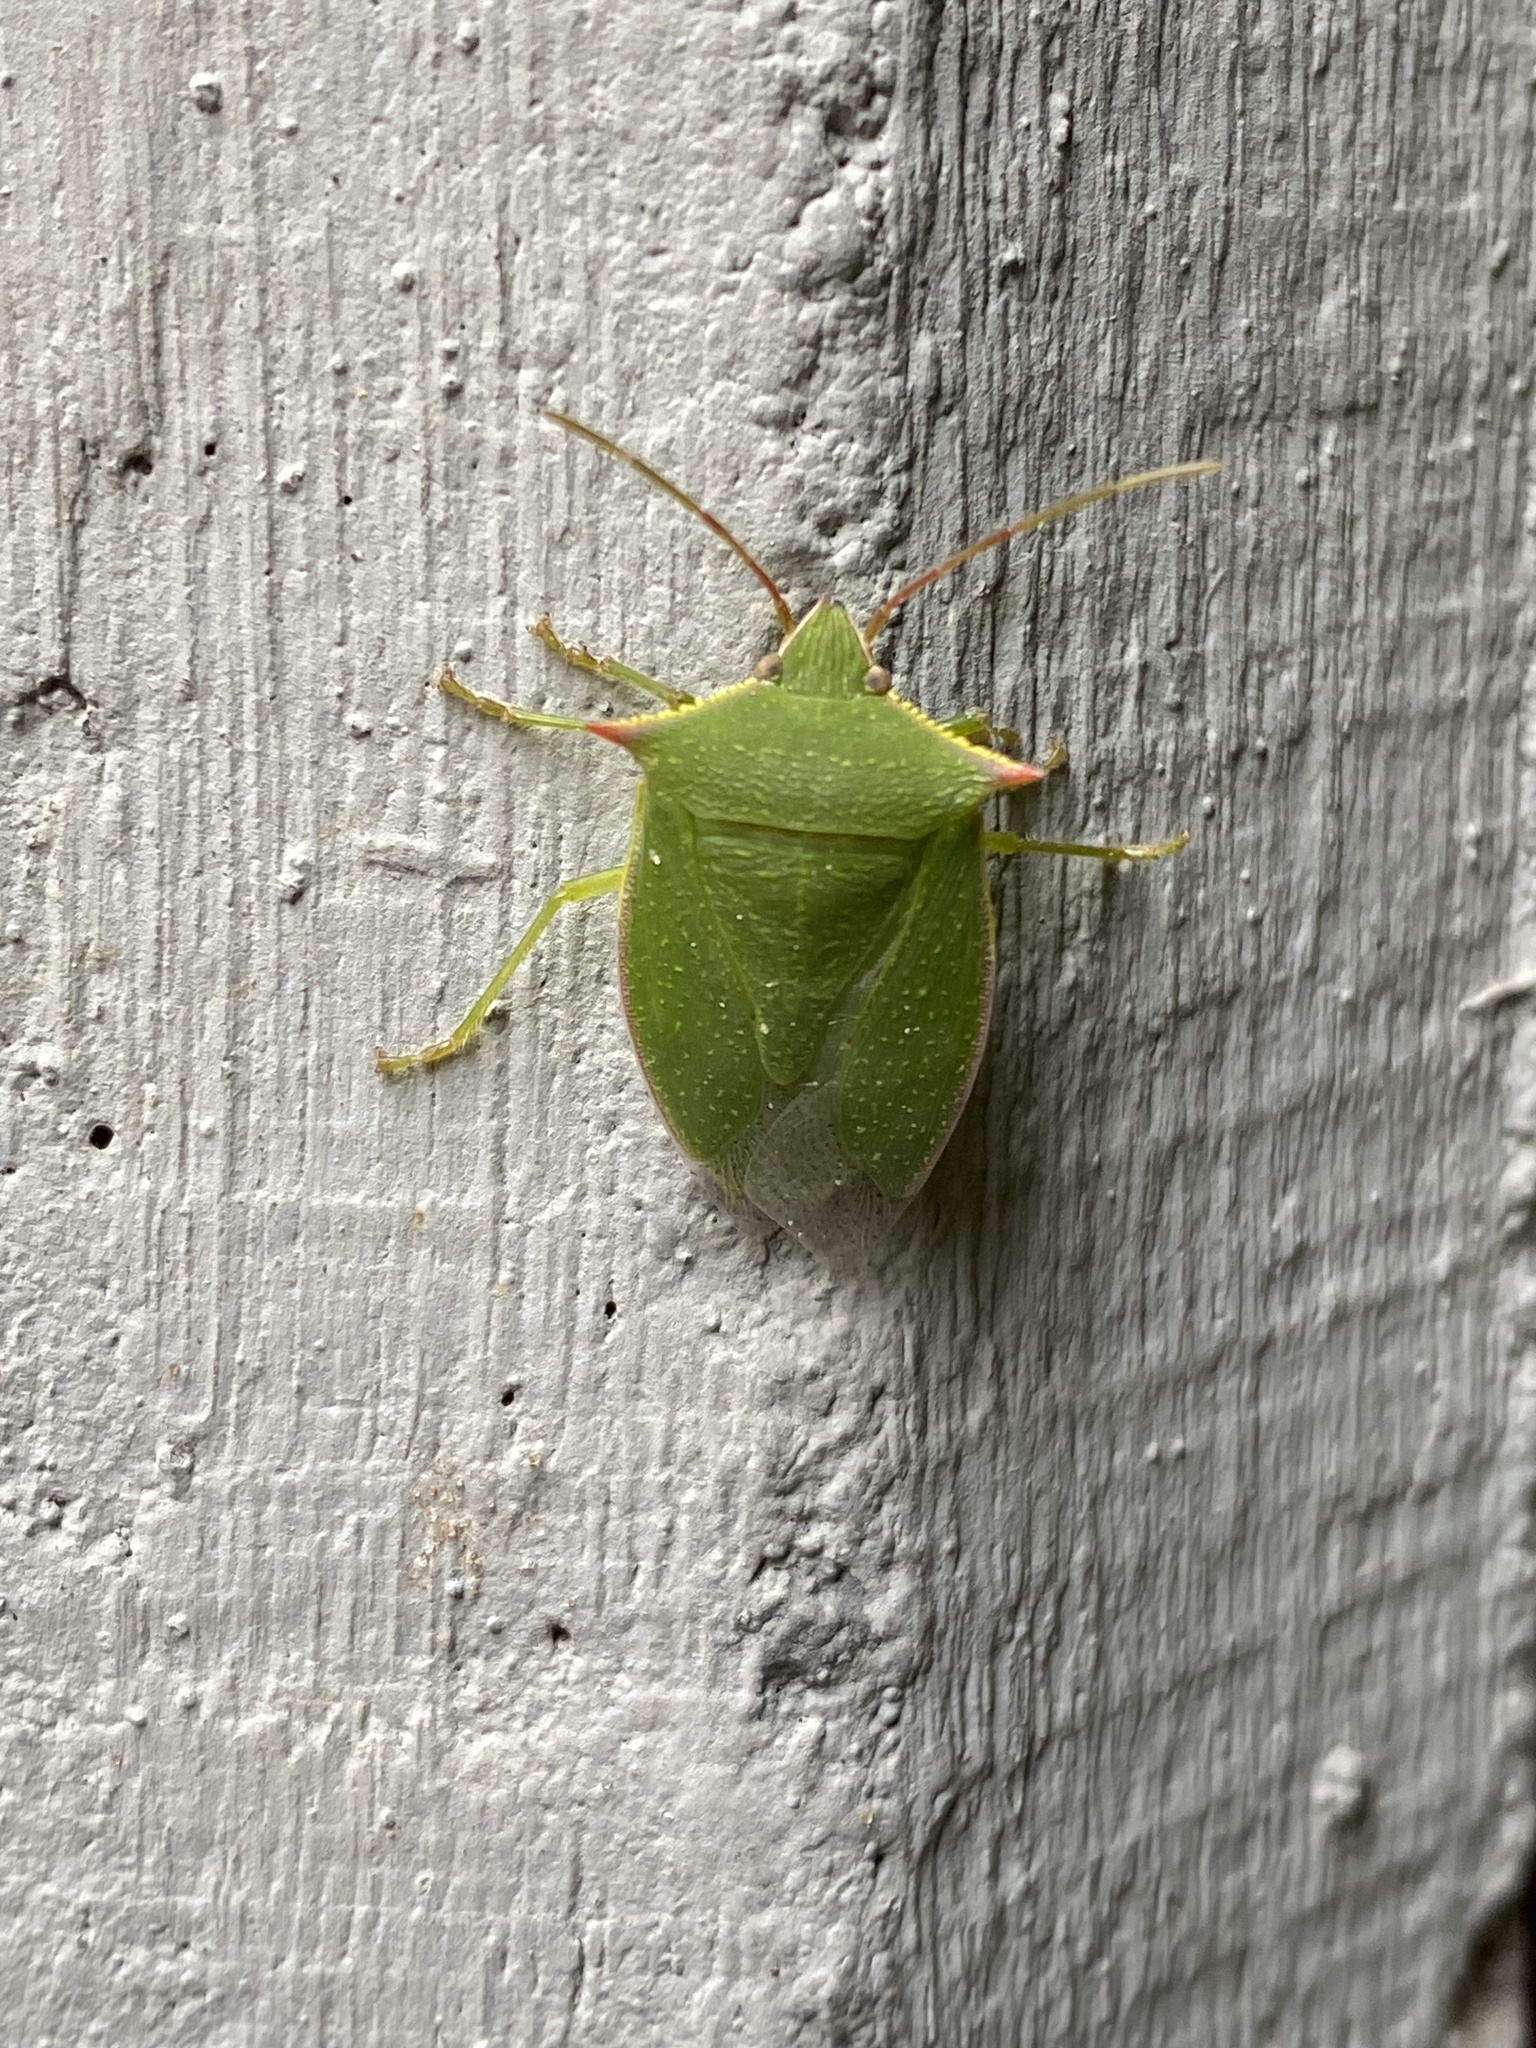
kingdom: Animalia
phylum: Arthropoda
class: Insecta
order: Hemiptera
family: Pentatomidae
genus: Loxa
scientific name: Loxa deducta
